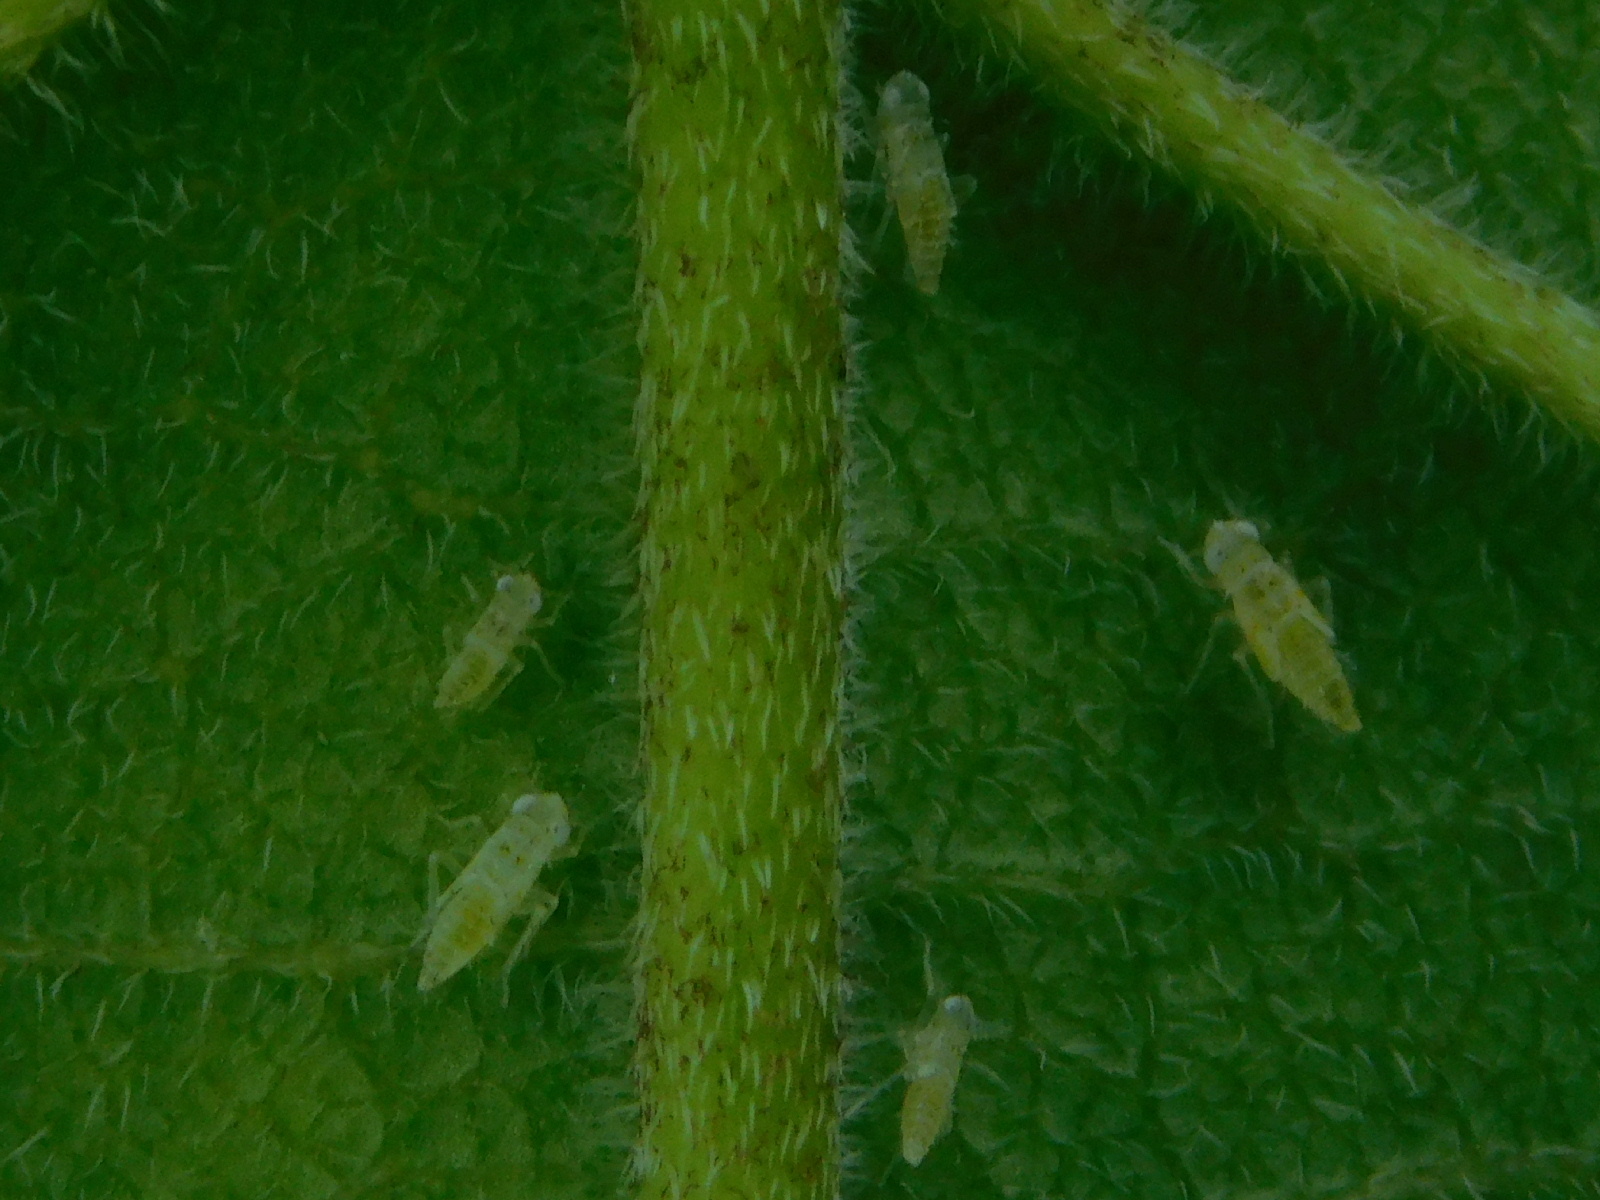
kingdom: Animalia
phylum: Arthropoda
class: Insecta
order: Hemiptera
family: Cicadellidae
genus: Protalebra
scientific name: Protalebra nexa
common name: Leafhopper
